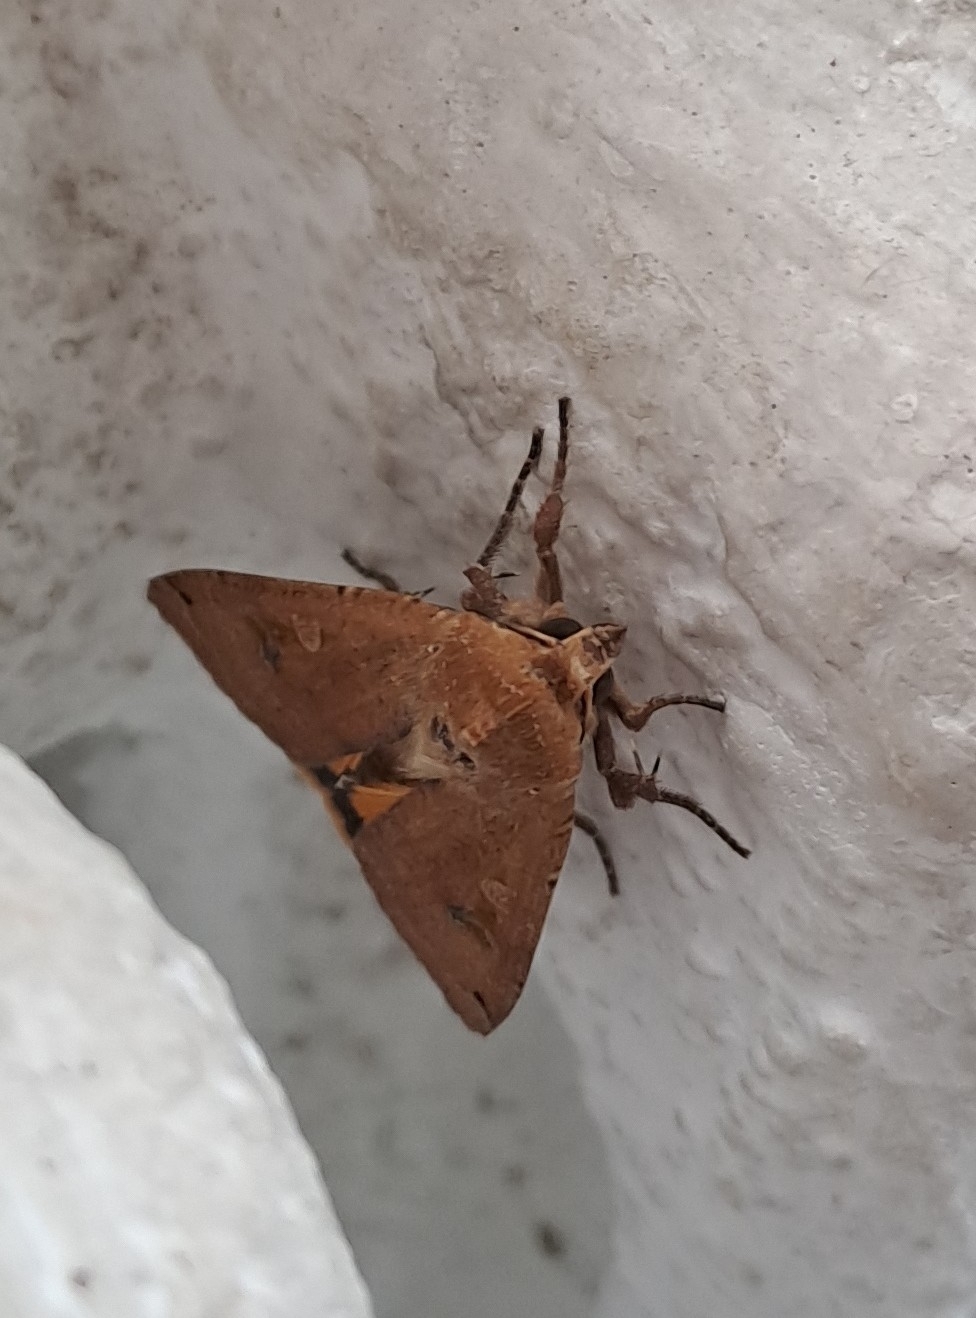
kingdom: Animalia
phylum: Arthropoda
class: Insecta
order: Lepidoptera
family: Noctuidae
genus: Noctua
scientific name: Noctua pronuba
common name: Large yellow underwing
